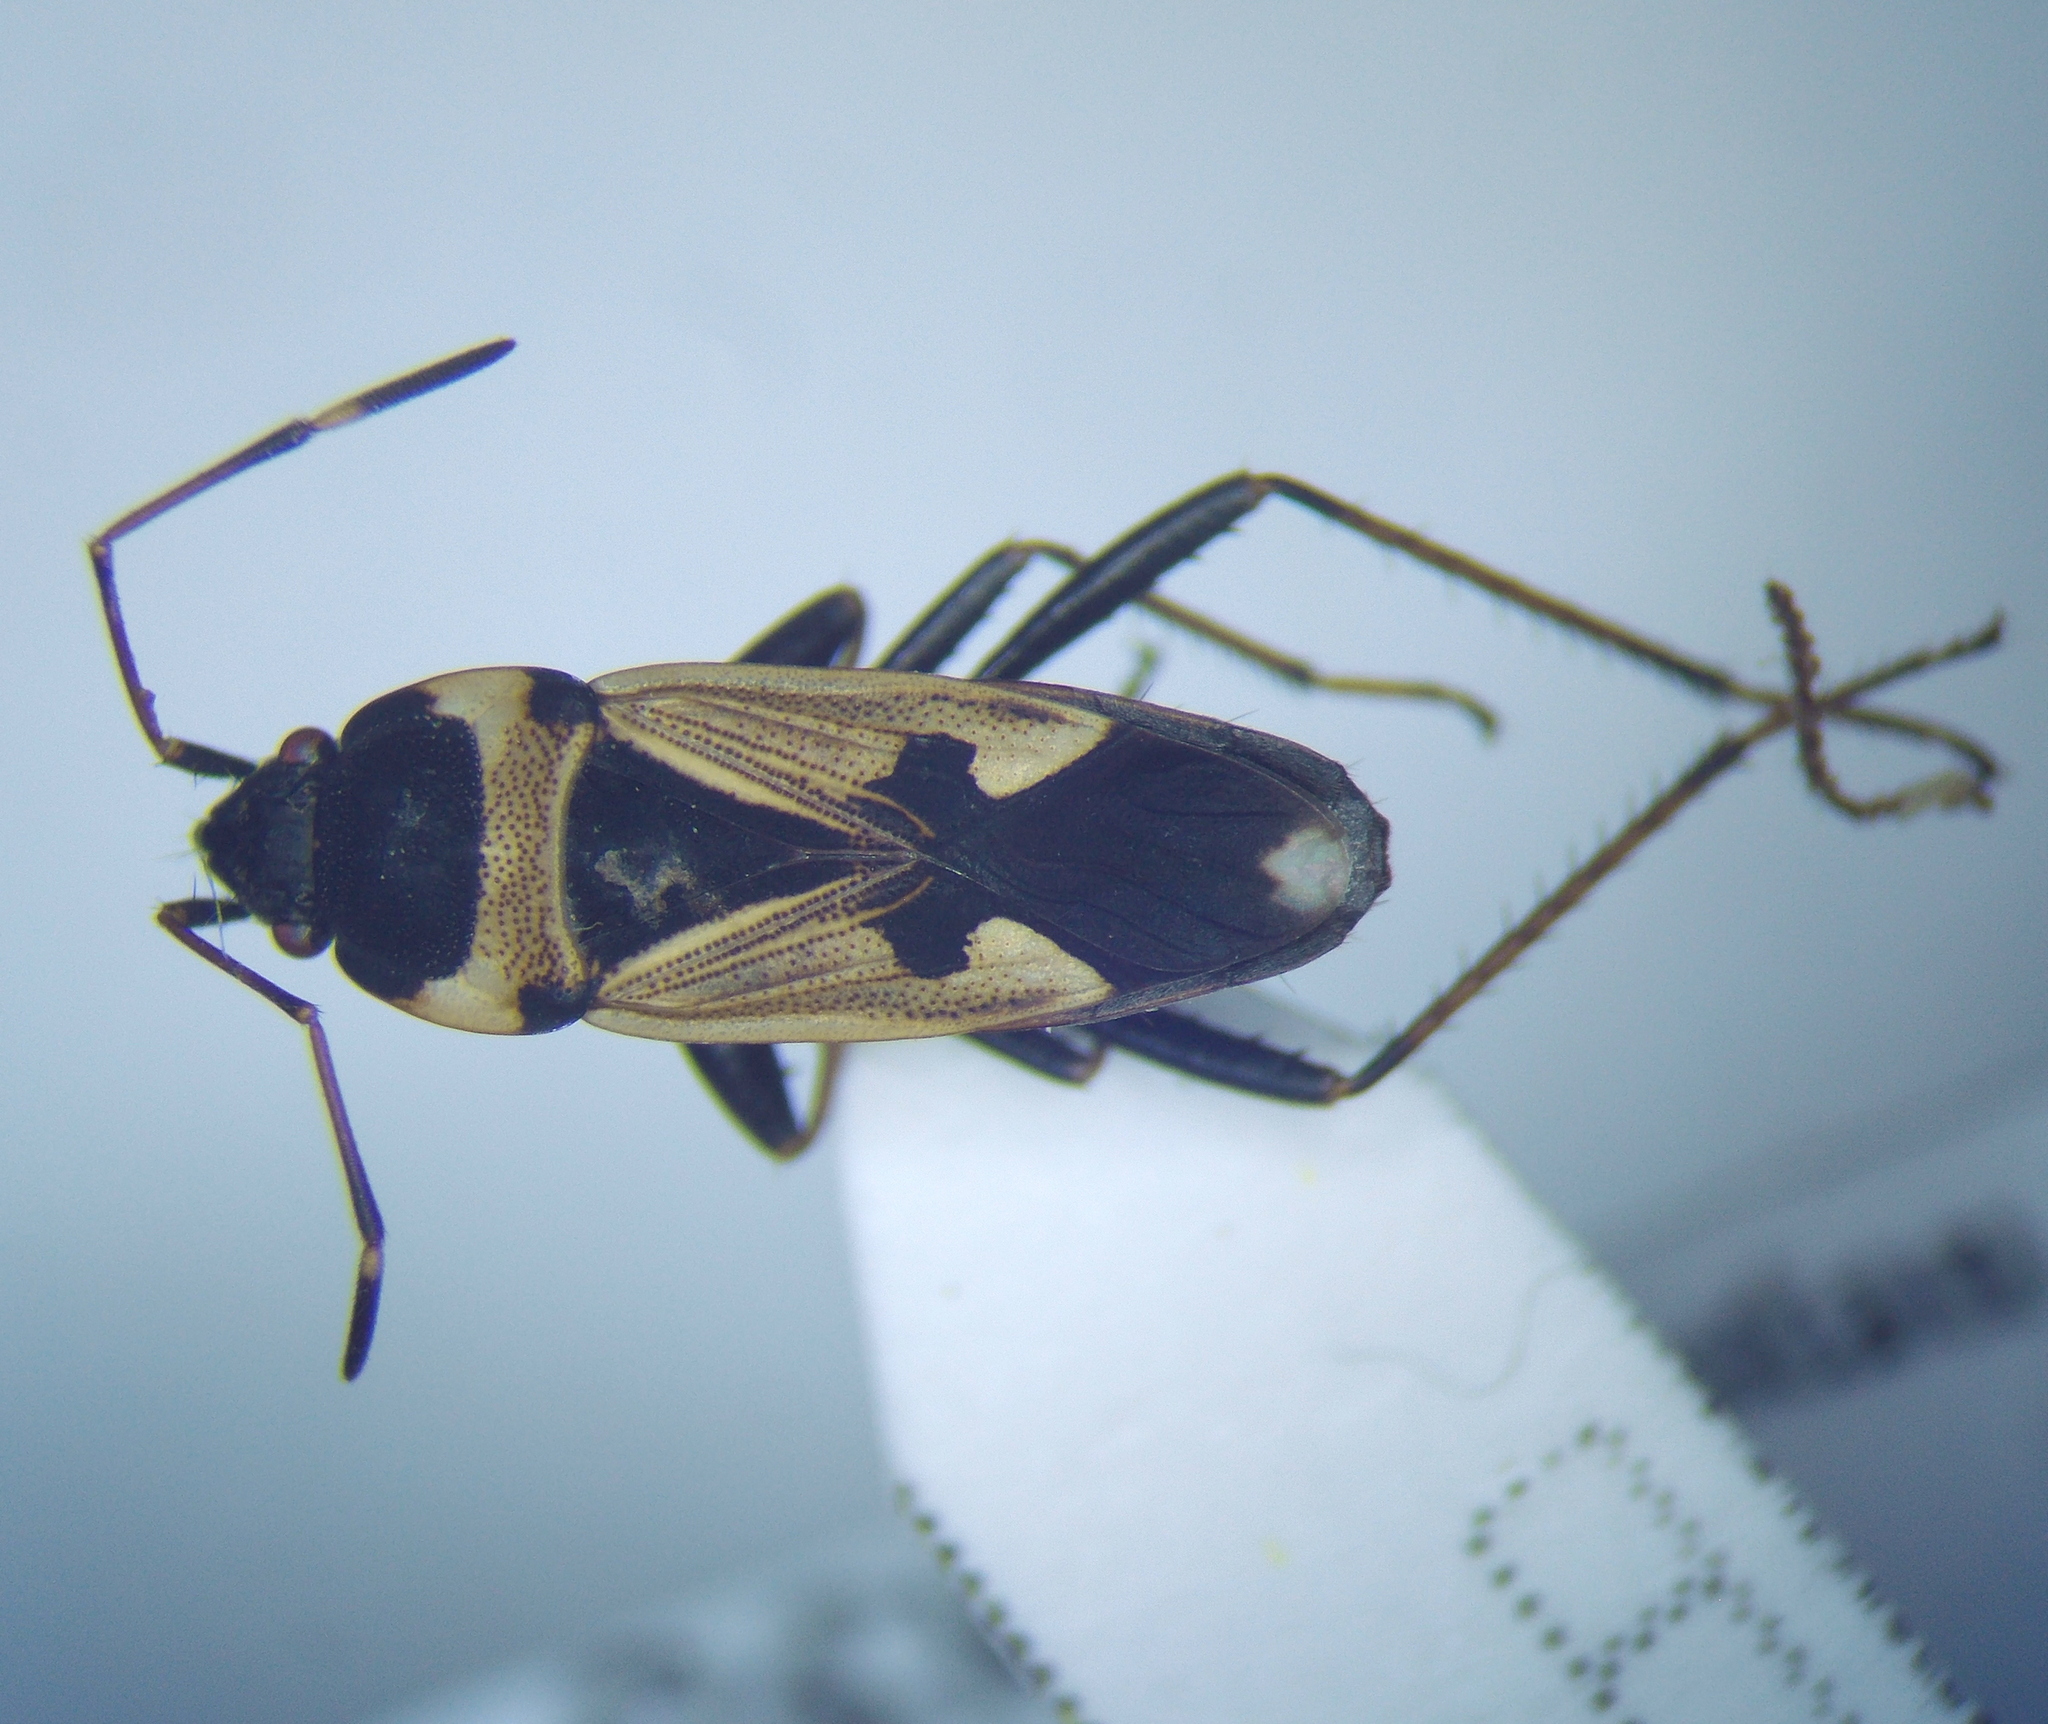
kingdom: Animalia
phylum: Arthropoda
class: Insecta
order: Hemiptera
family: Rhyparochromidae
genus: Raglius
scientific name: Raglius confusus
